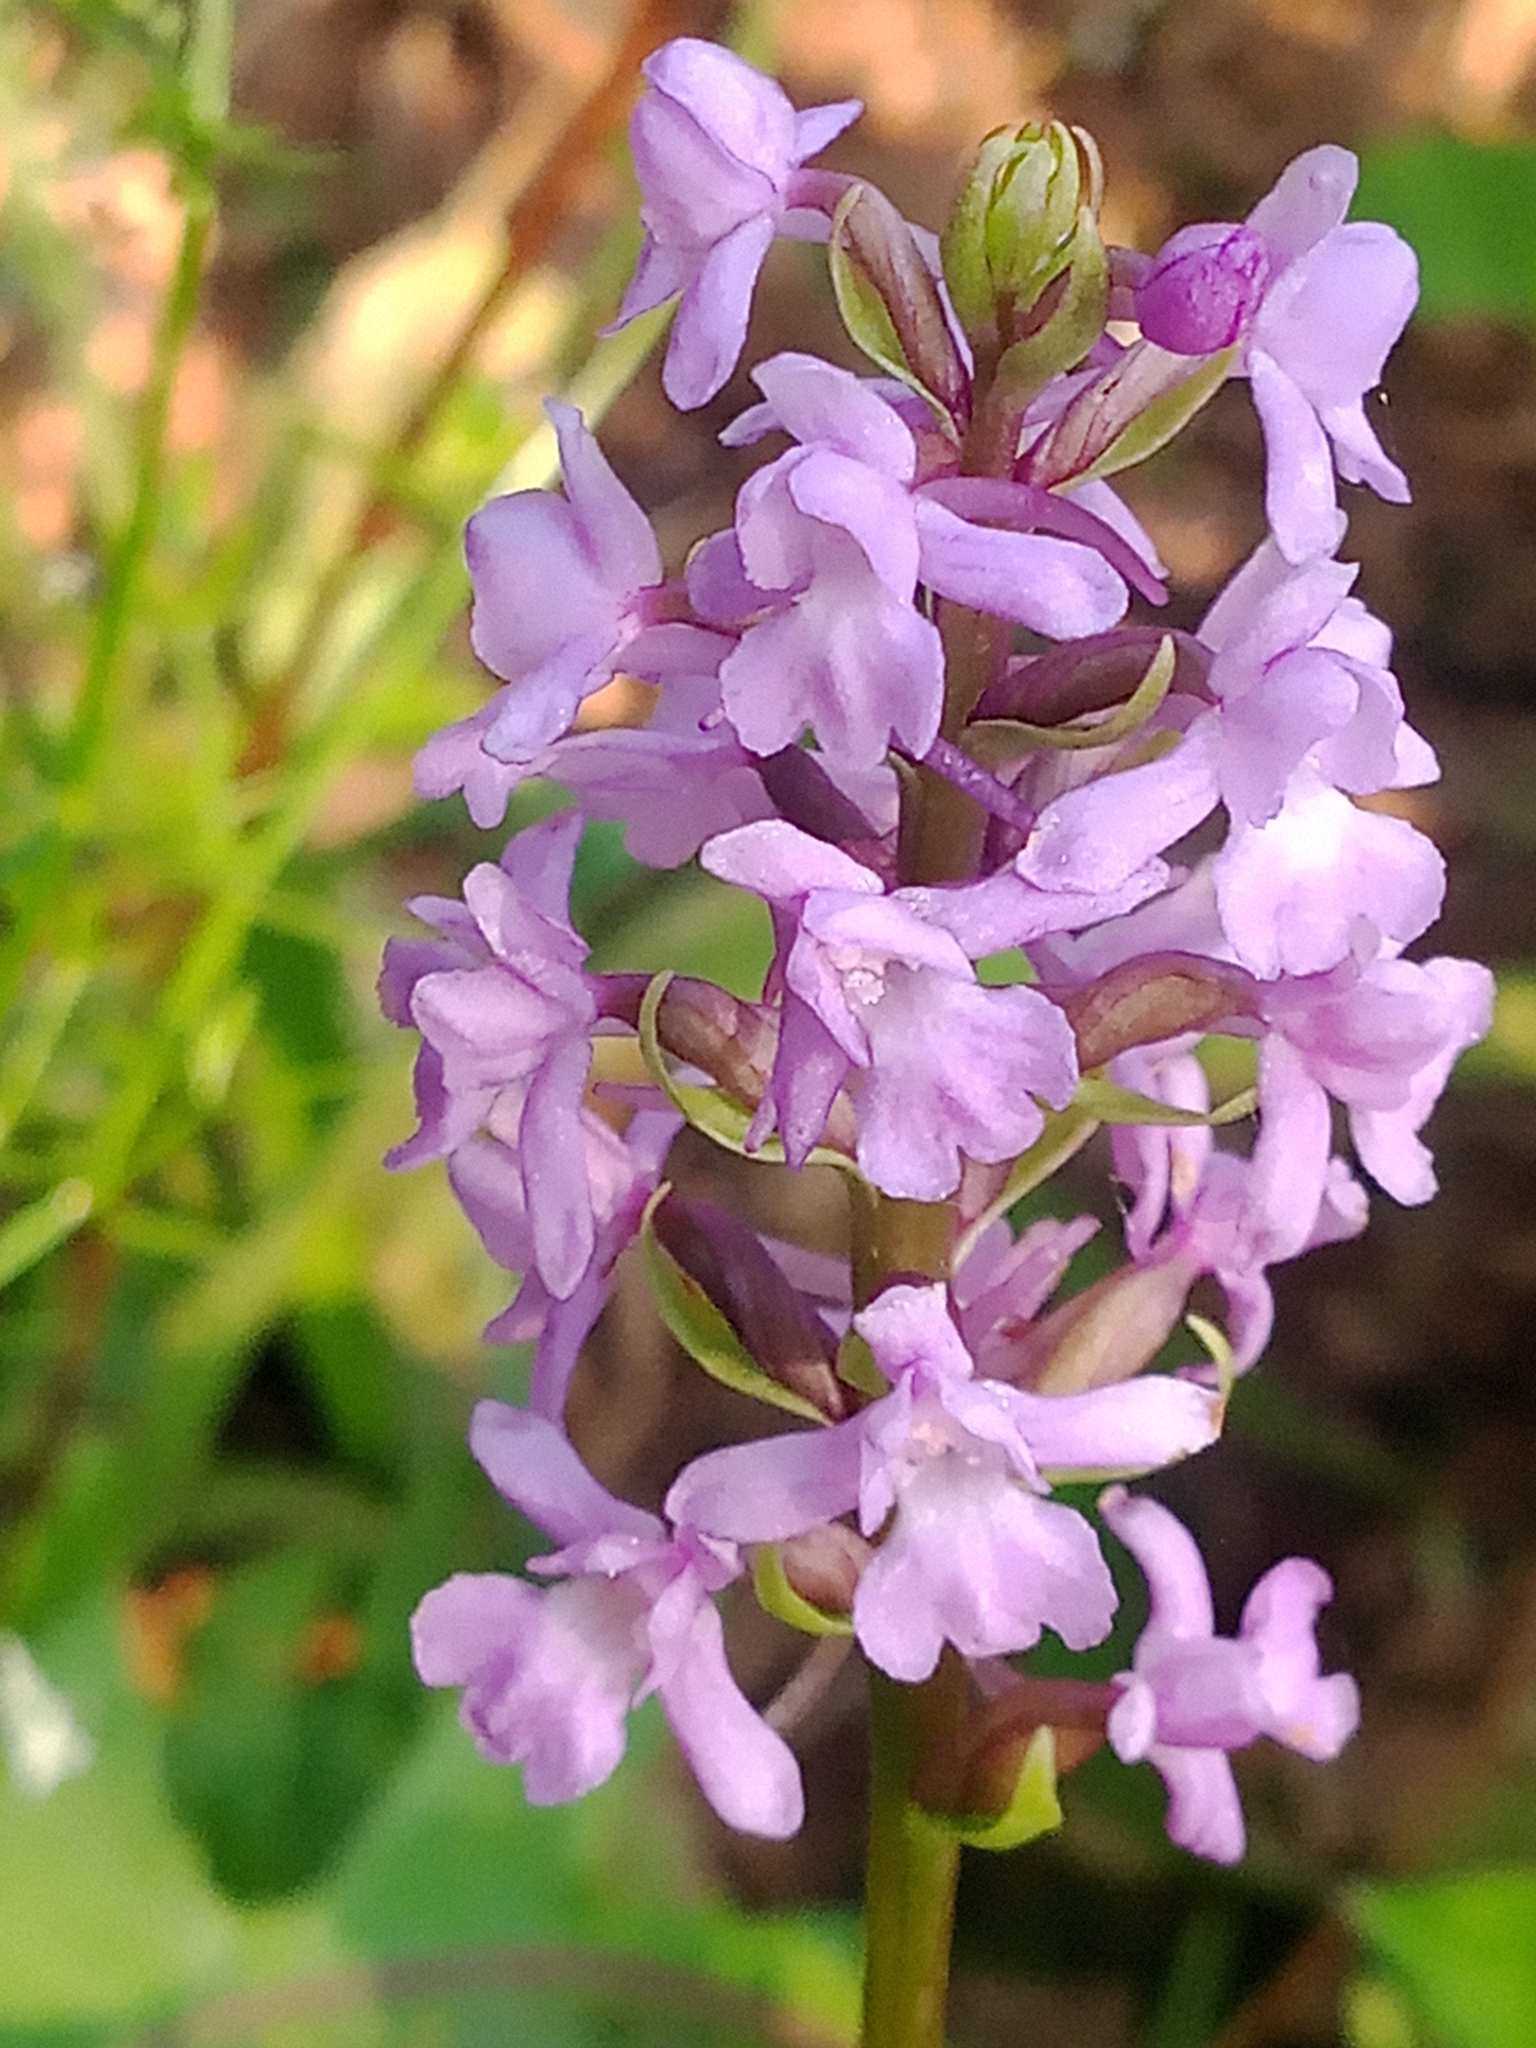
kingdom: Plantae
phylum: Tracheophyta
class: Liliopsida
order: Asparagales
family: Orchidaceae
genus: Gymnadenia
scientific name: Gymnadenia conopsea
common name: Fragrant orchid
